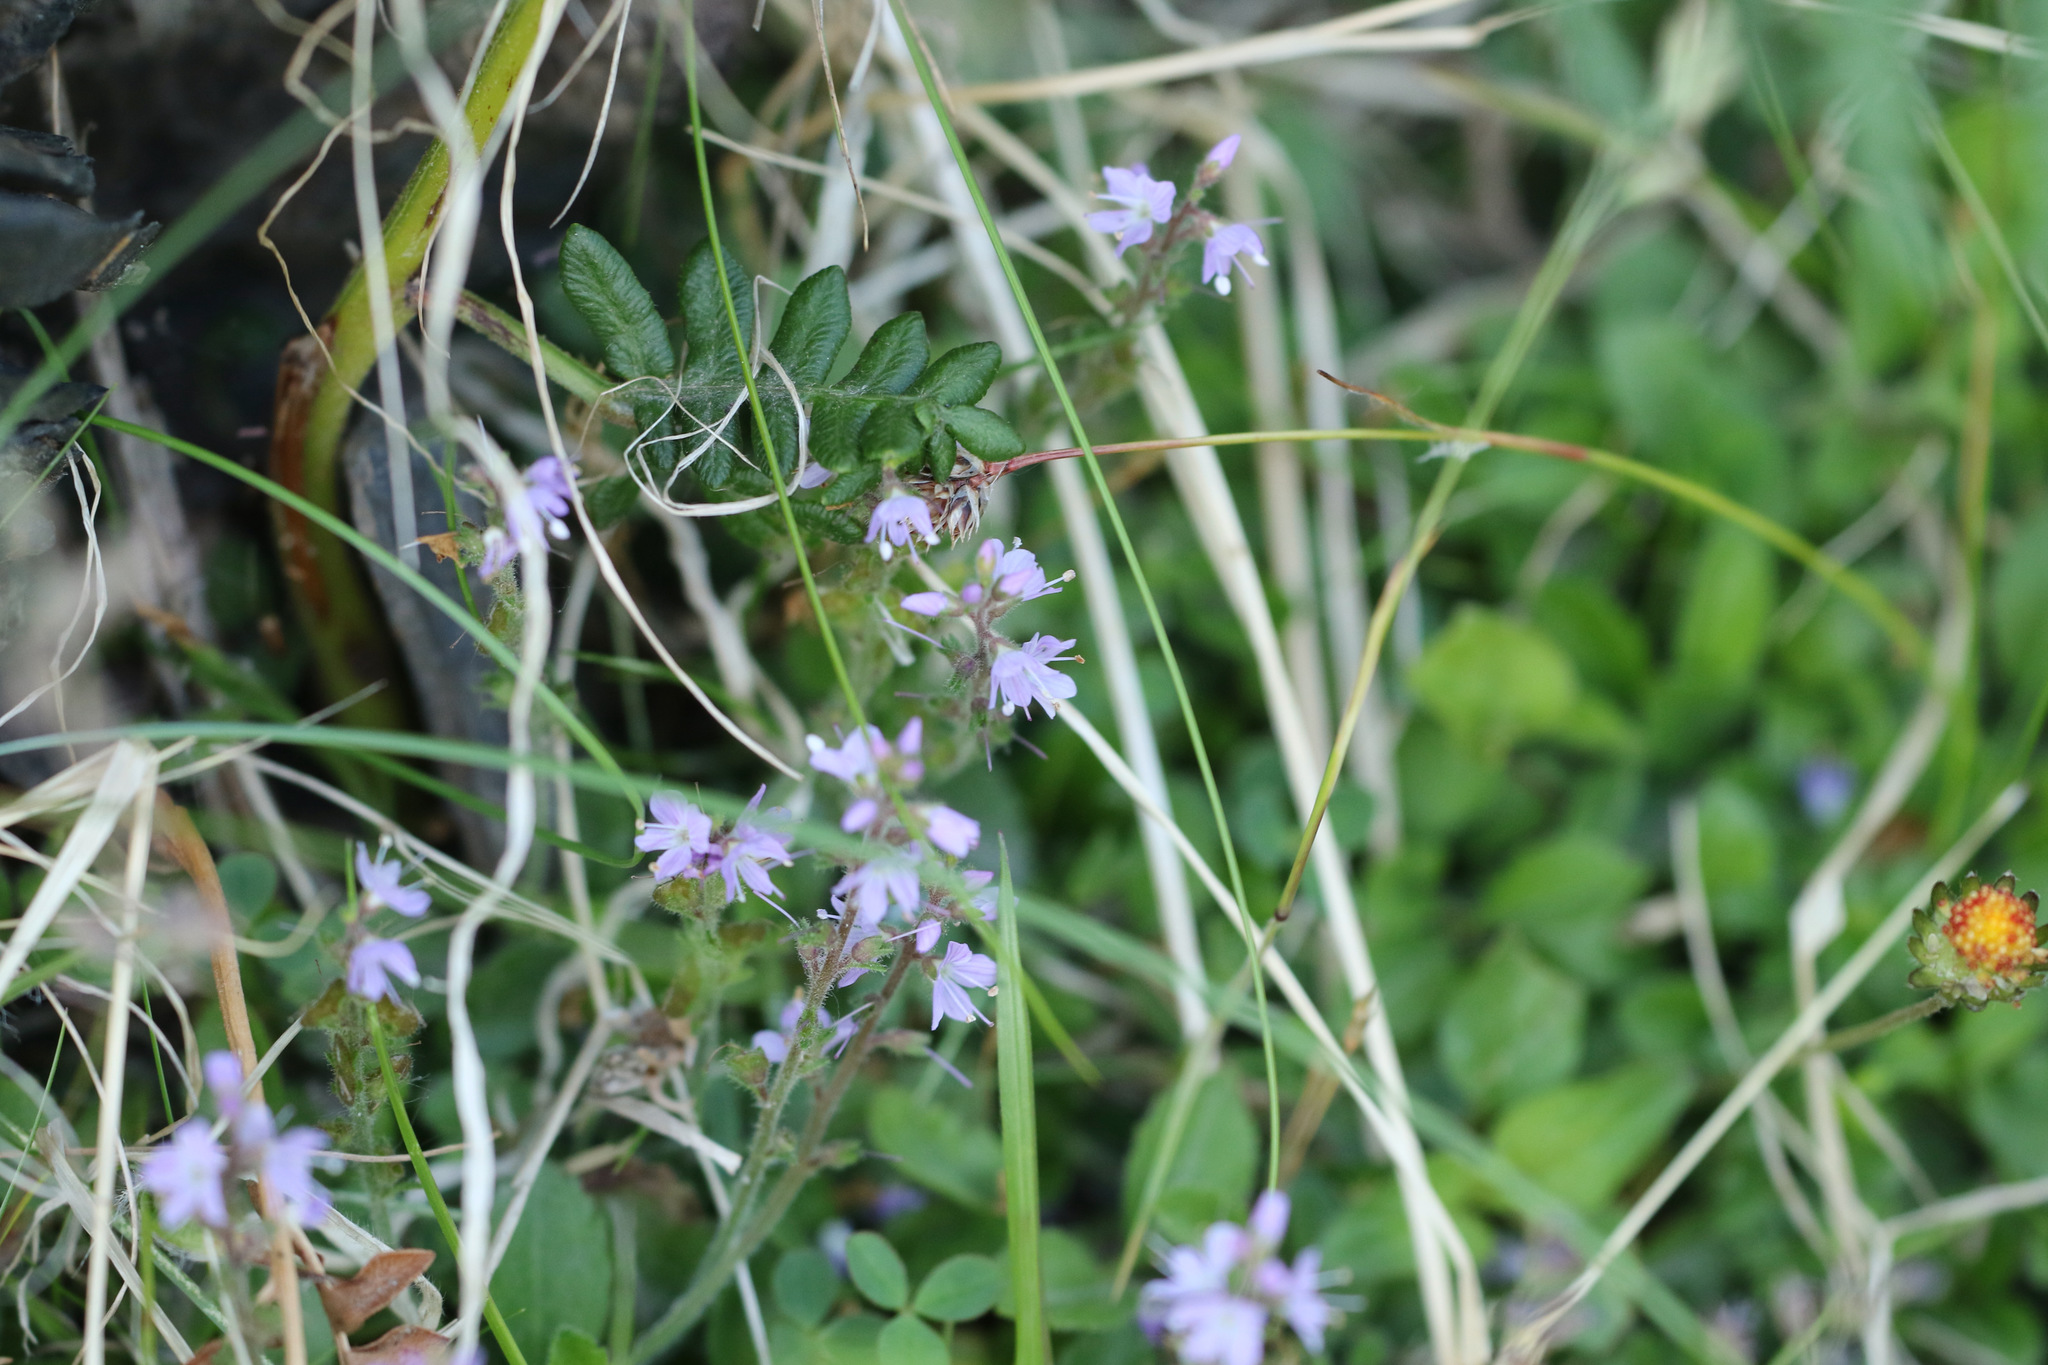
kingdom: Plantae
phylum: Tracheophyta
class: Magnoliopsida
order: Lamiales
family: Plantaginaceae
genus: Veronica
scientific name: Veronica officinalis
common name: Common speedwell
